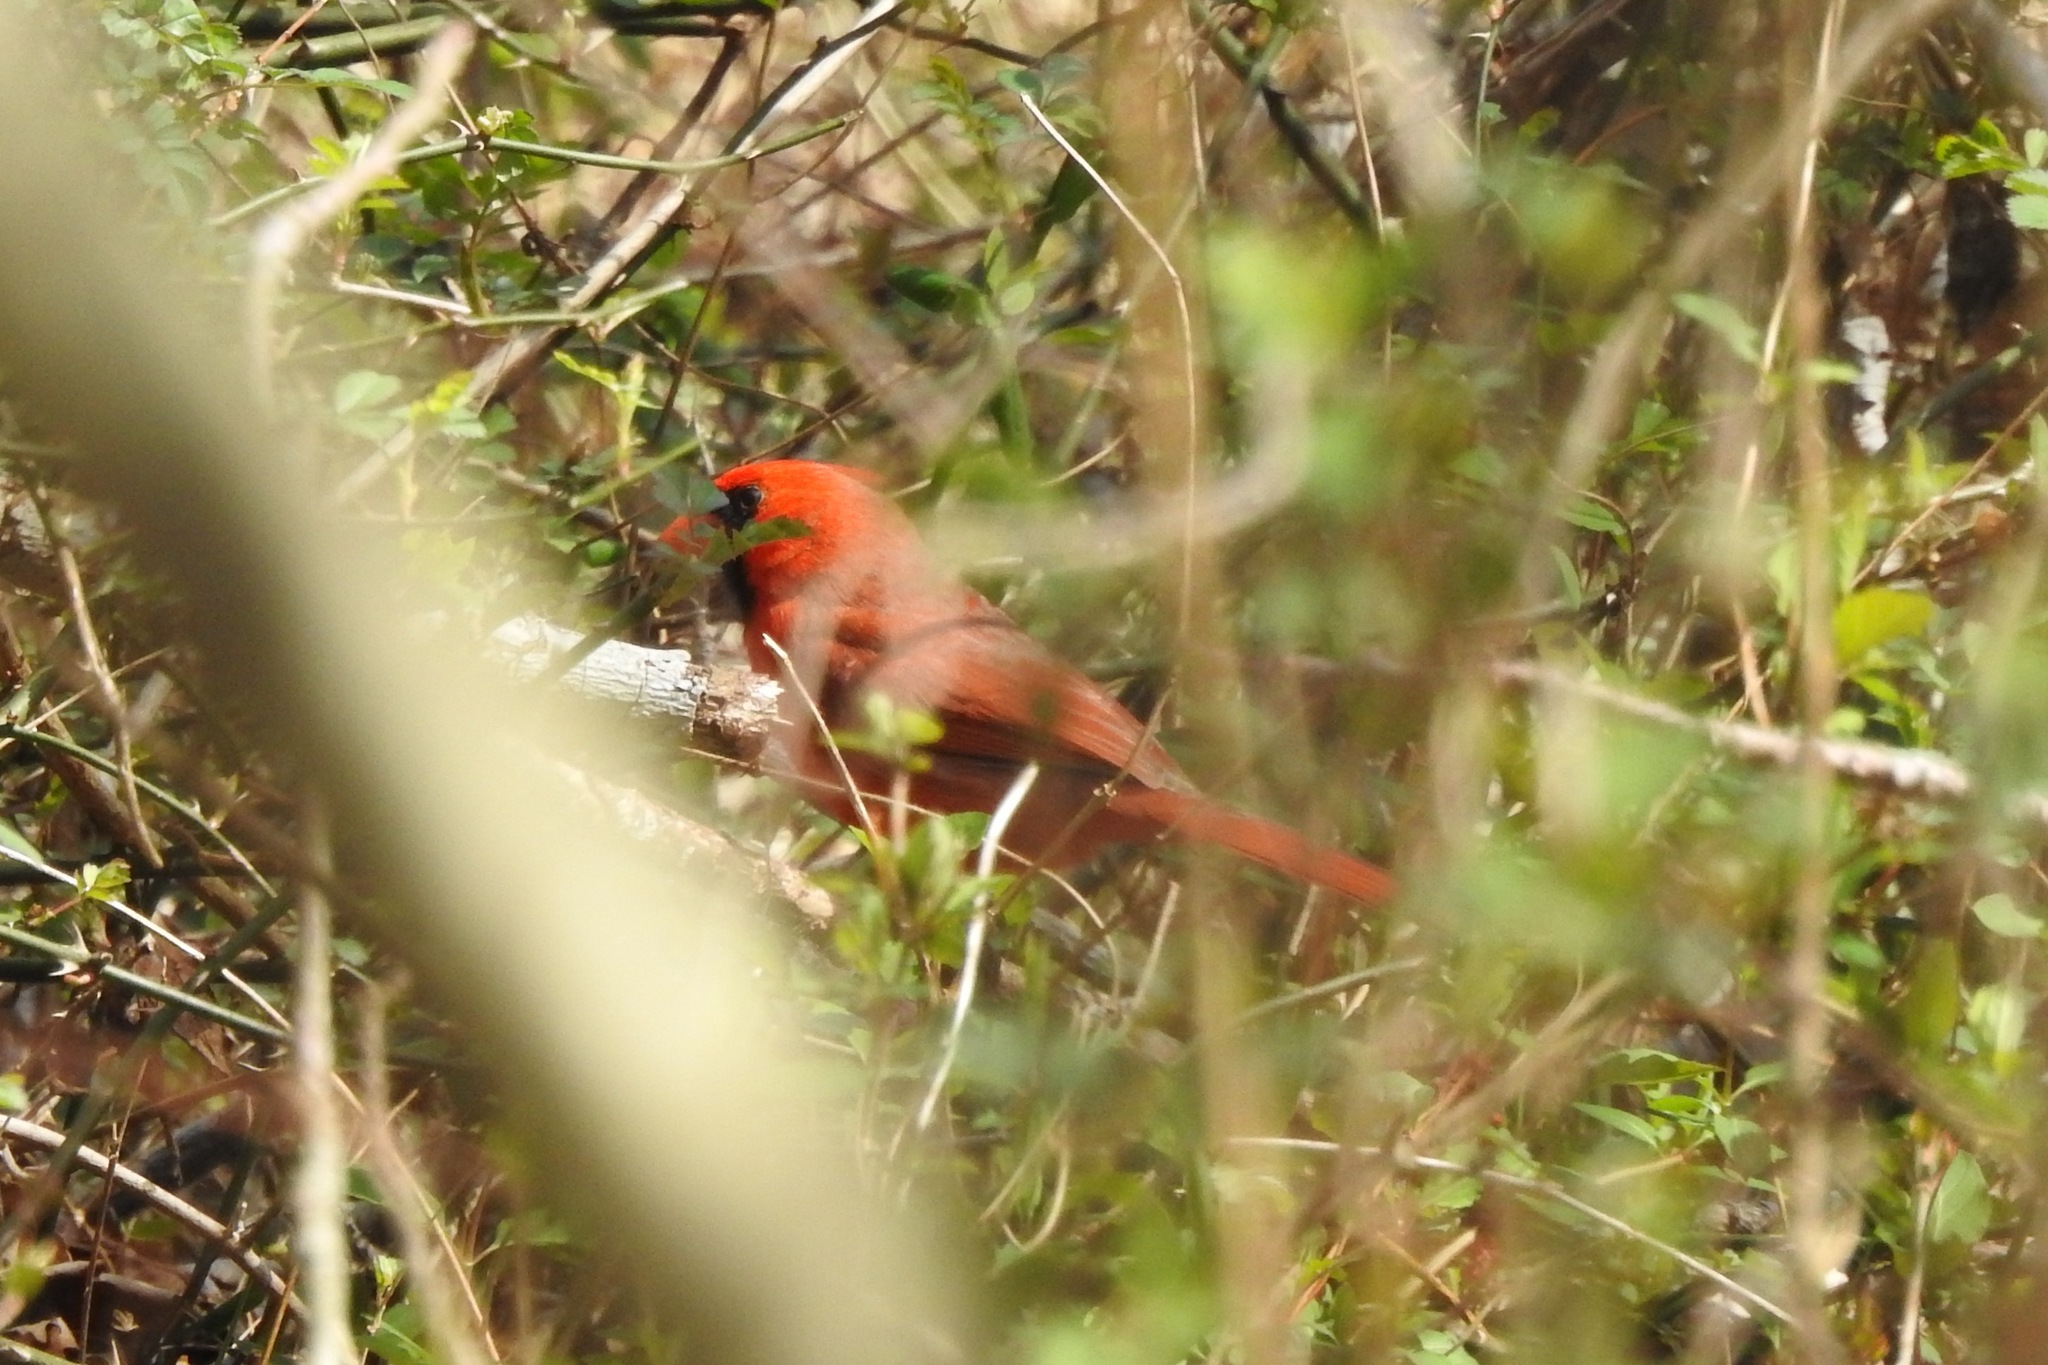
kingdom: Animalia
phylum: Chordata
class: Aves
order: Passeriformes
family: Cardinalidae
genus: Cardinalis
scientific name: Cardinalis cardinalis
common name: Northern cardinal
